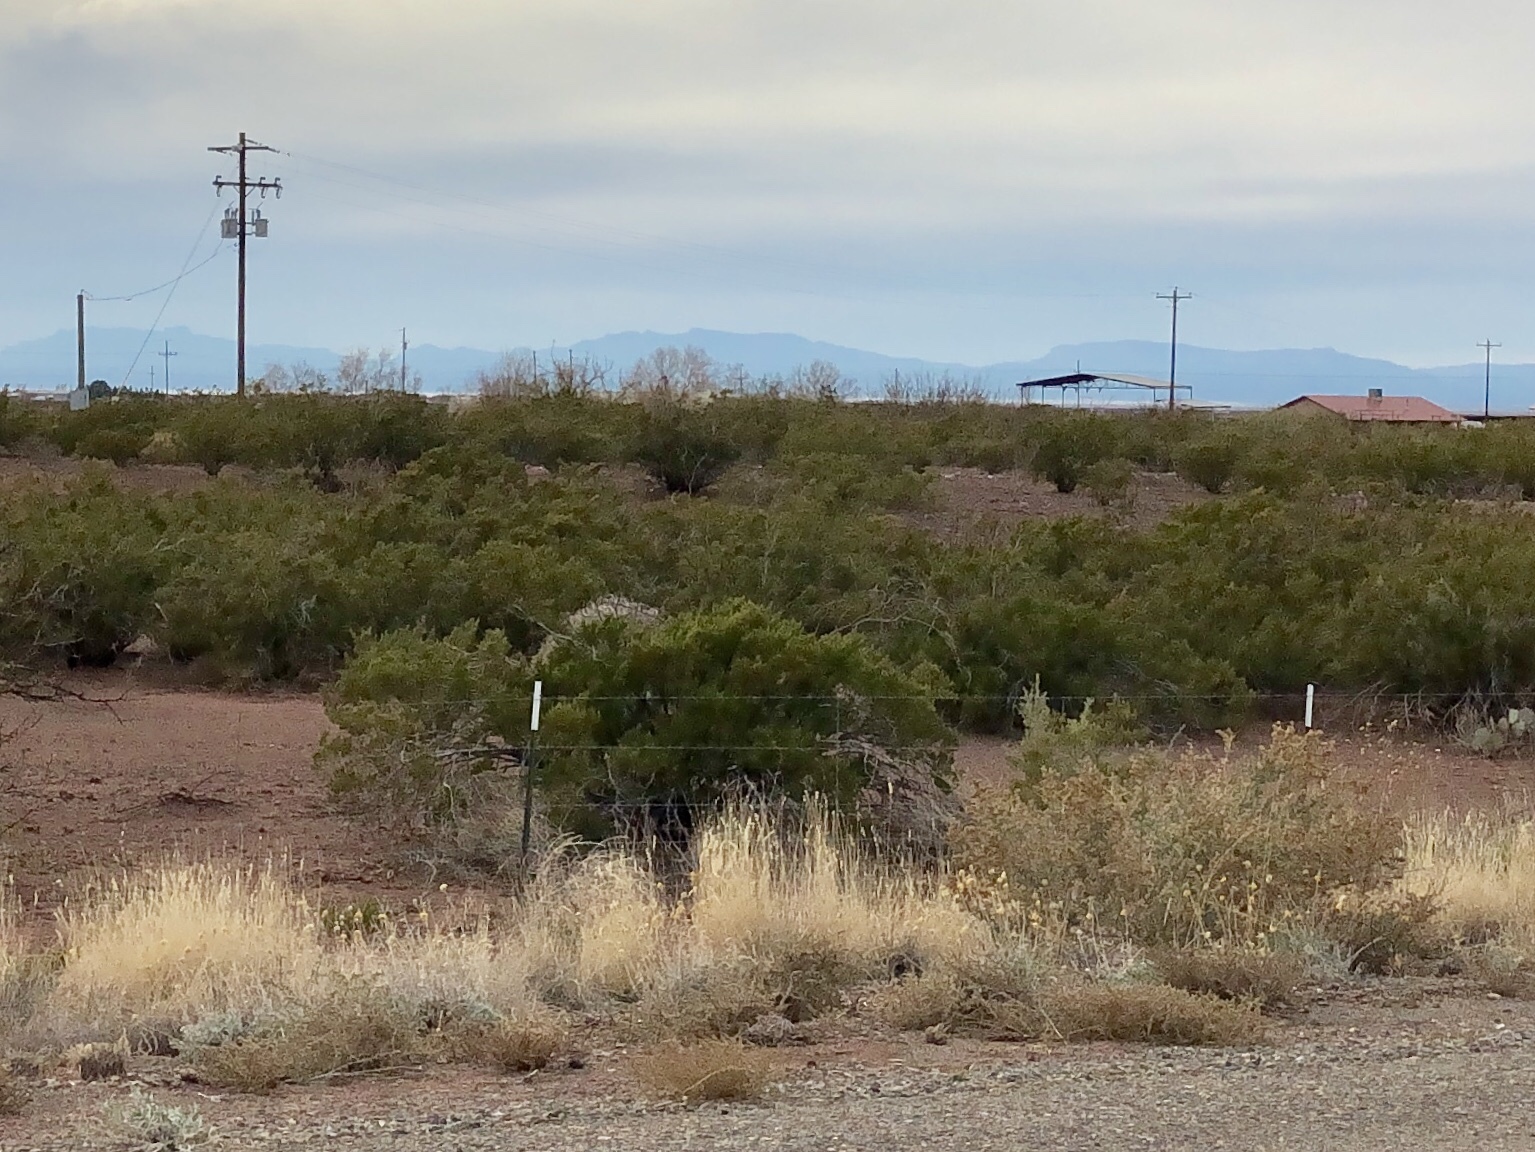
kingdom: Plantae
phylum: Tracheophyta
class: Magnoliopsida
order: Zygophyllales
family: Zygophyllaceae
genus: Larrea
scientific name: Larrea tridentata
